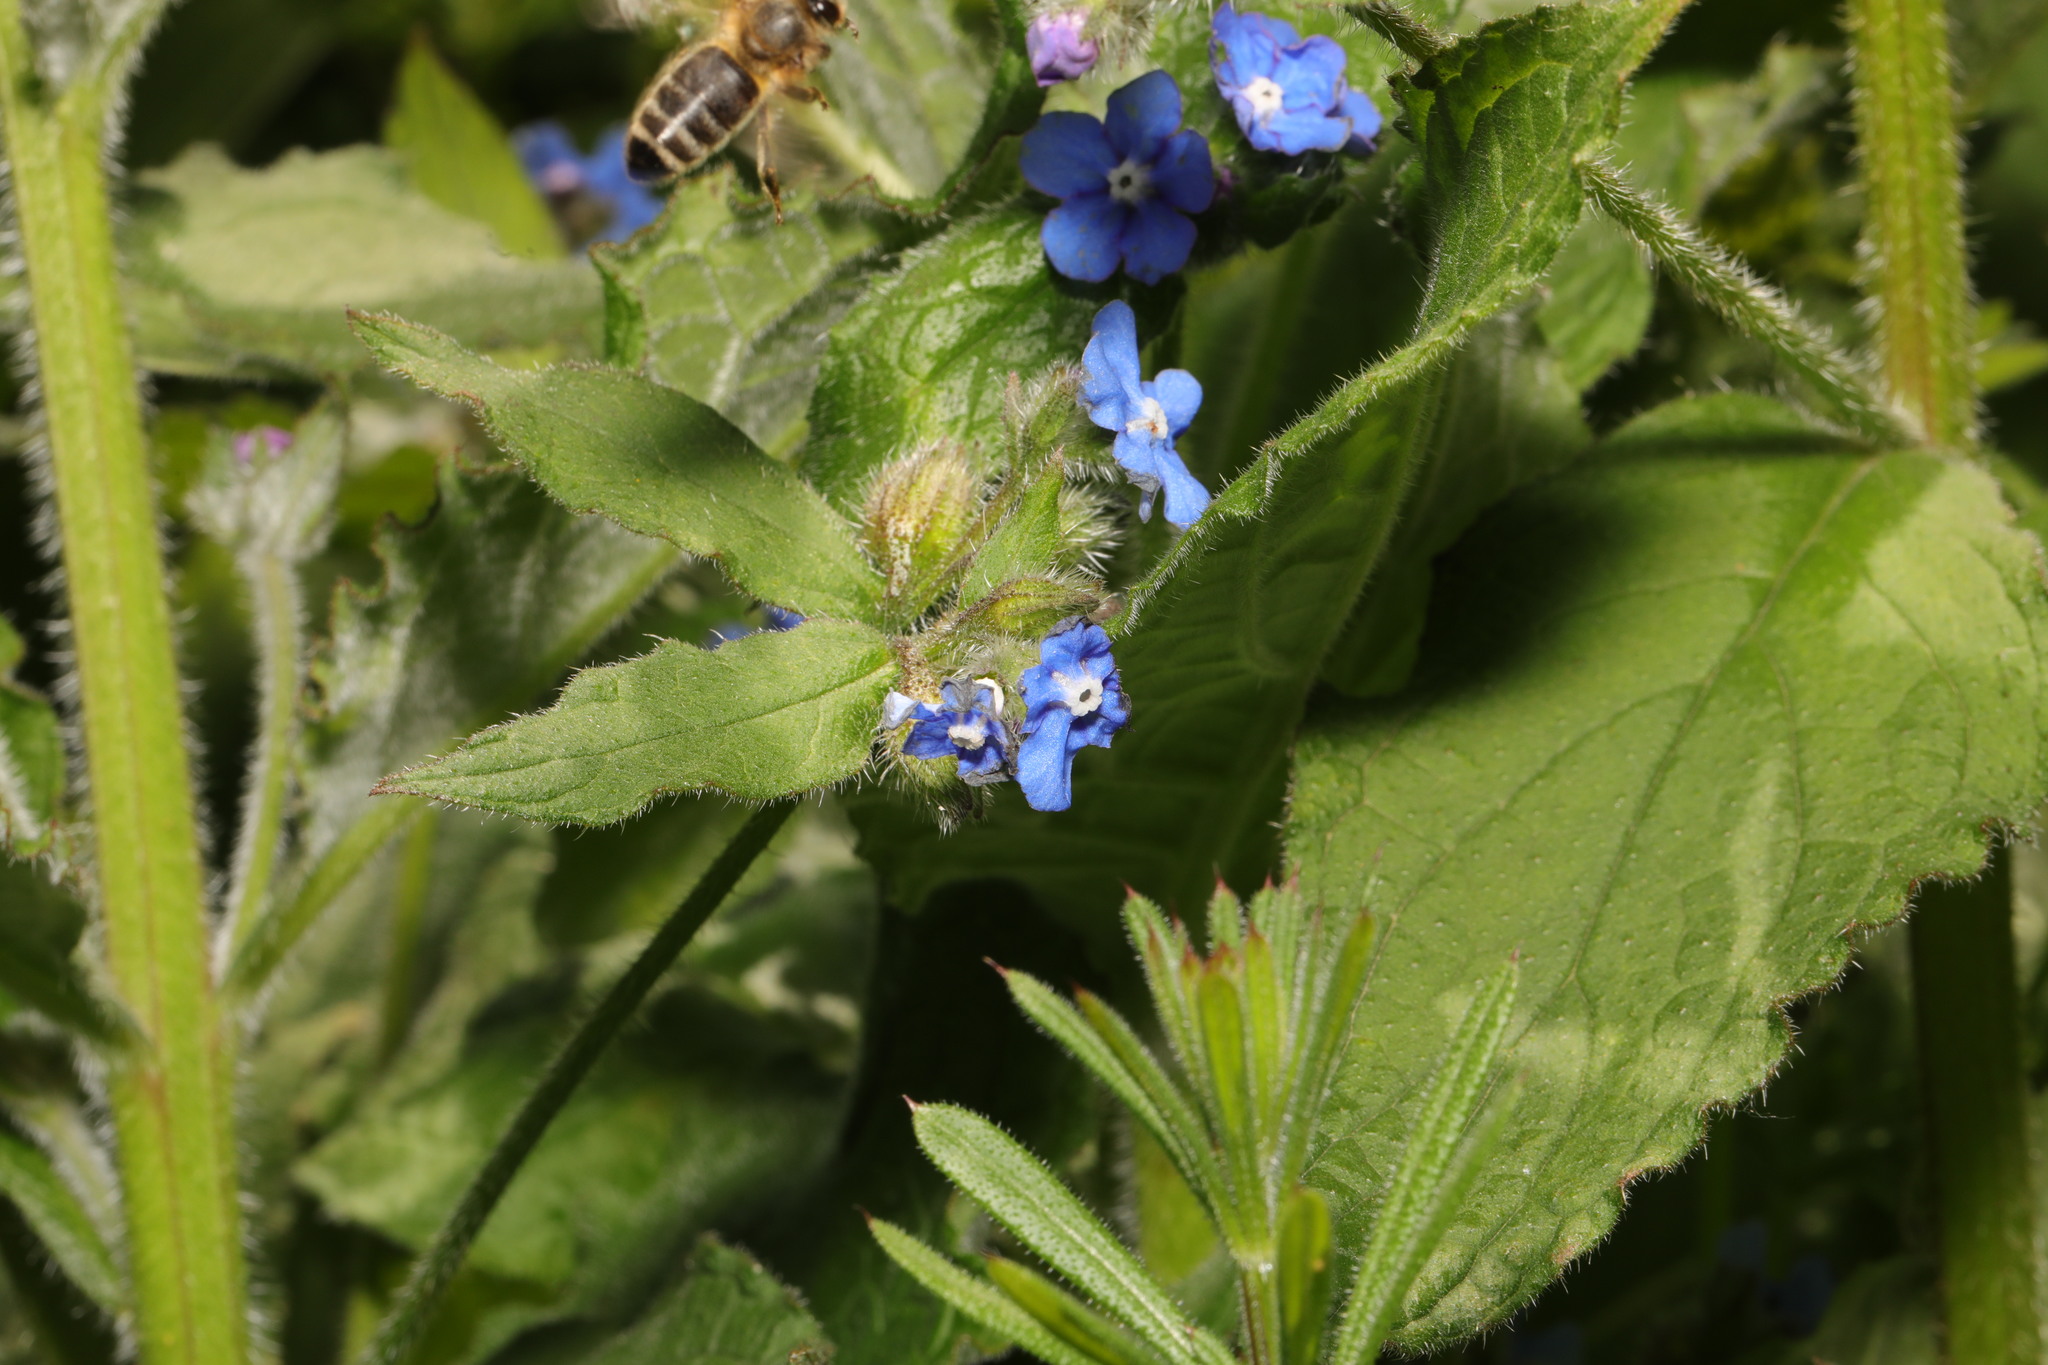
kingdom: Plantae
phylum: Tracheophyta
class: Magnoliopsida
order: Boraginales
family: Boraginaceae
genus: Pentaglottis
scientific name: Pentaglottis sempervirens
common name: Green alkanet
